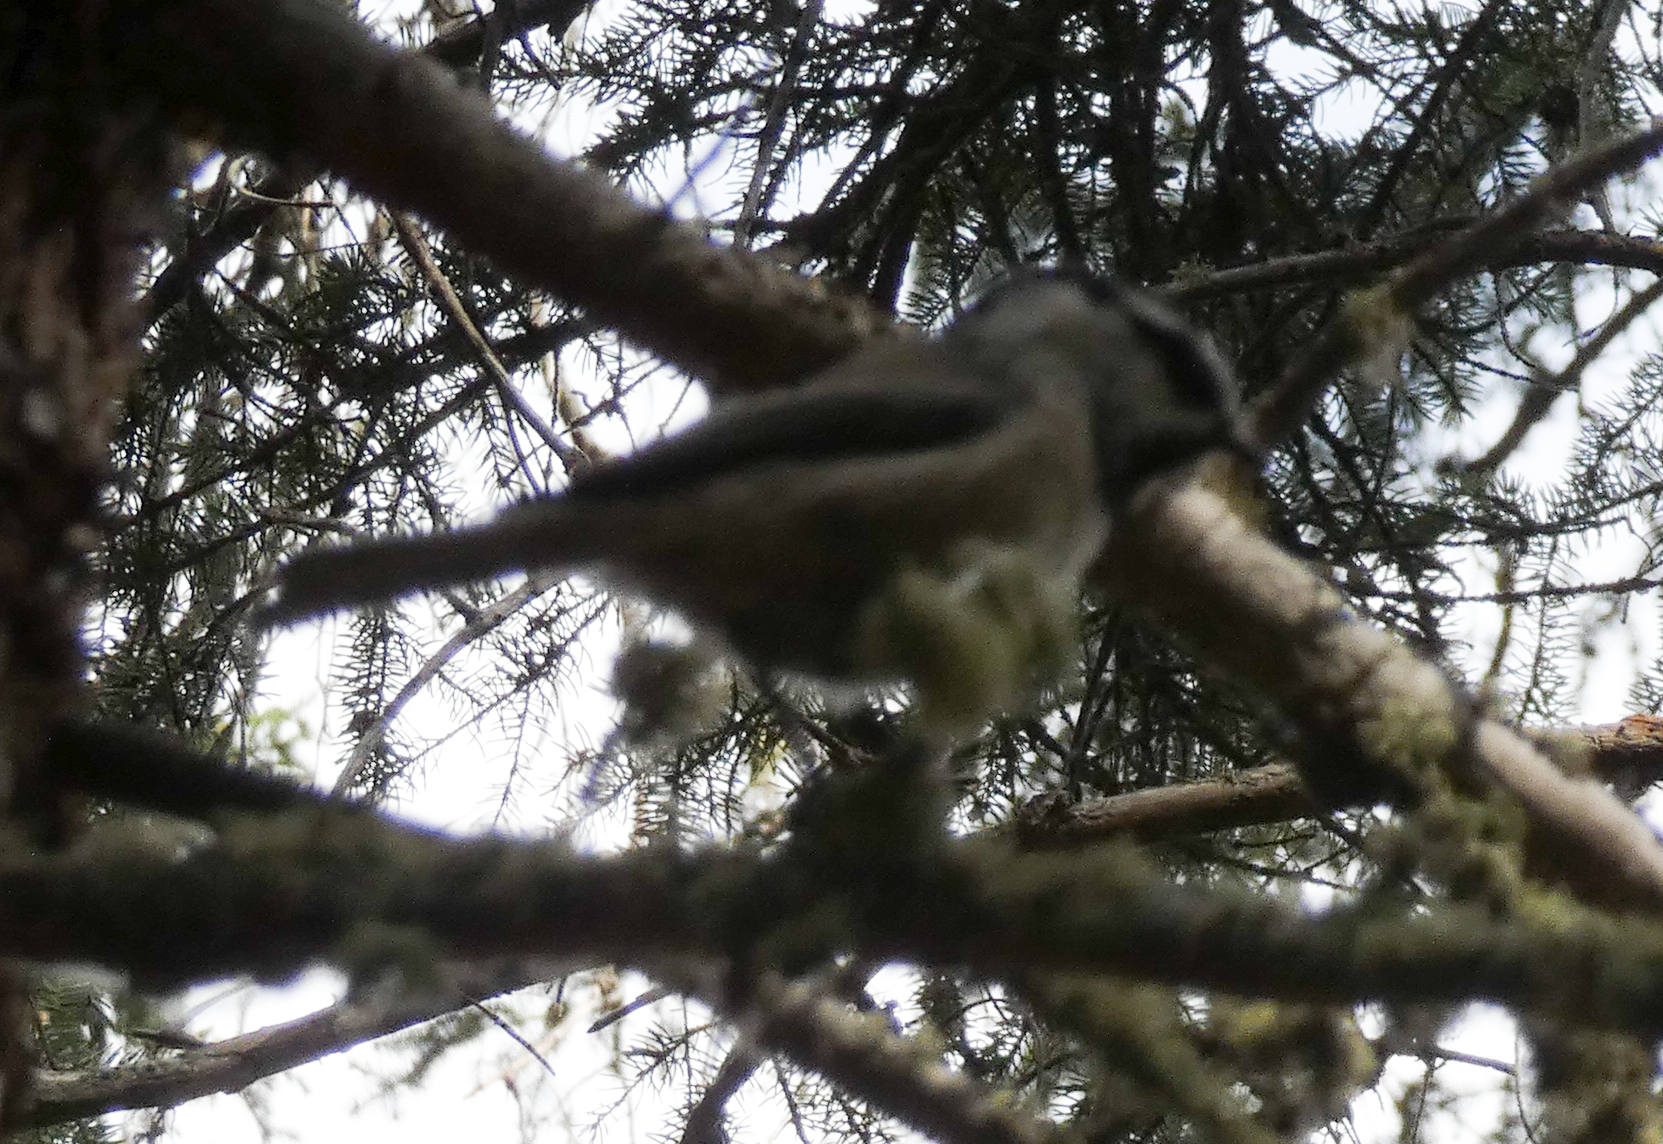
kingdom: Animalia
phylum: Chordata
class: Aves
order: Passeriformes
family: Paridae
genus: Poecile
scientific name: Poecile gambeli
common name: Mountain chickadee
